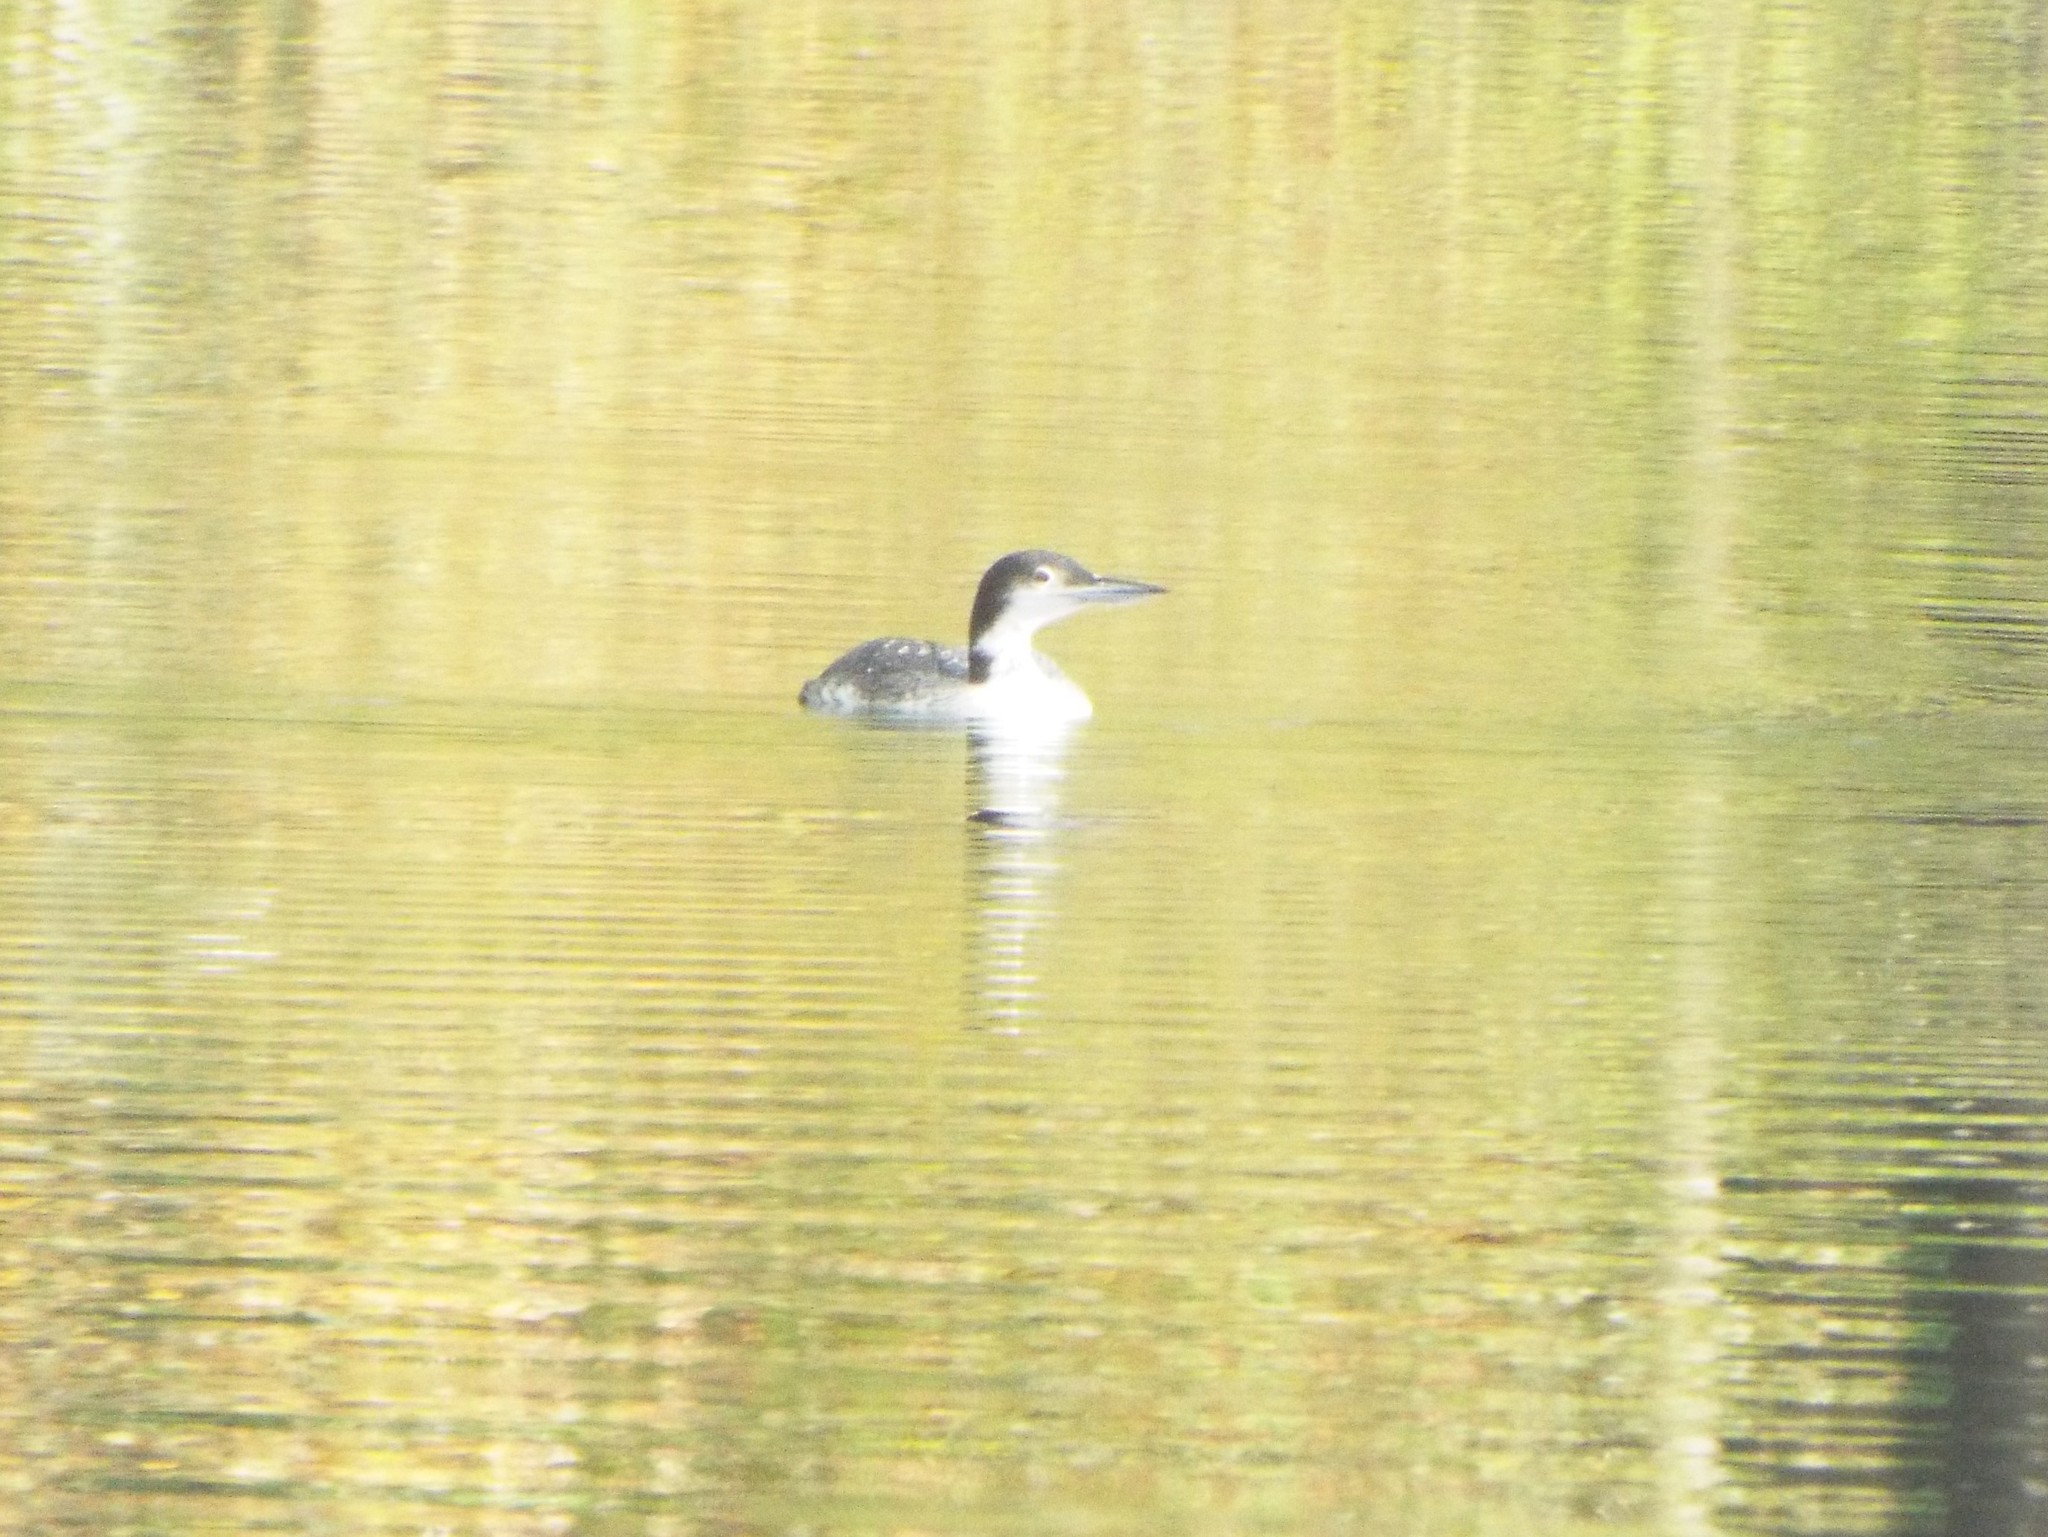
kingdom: Animalia
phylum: Chordata
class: Aves
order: Gaviiformes
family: Gaviidae
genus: Gavia
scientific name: Gavia immer
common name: Common loon
